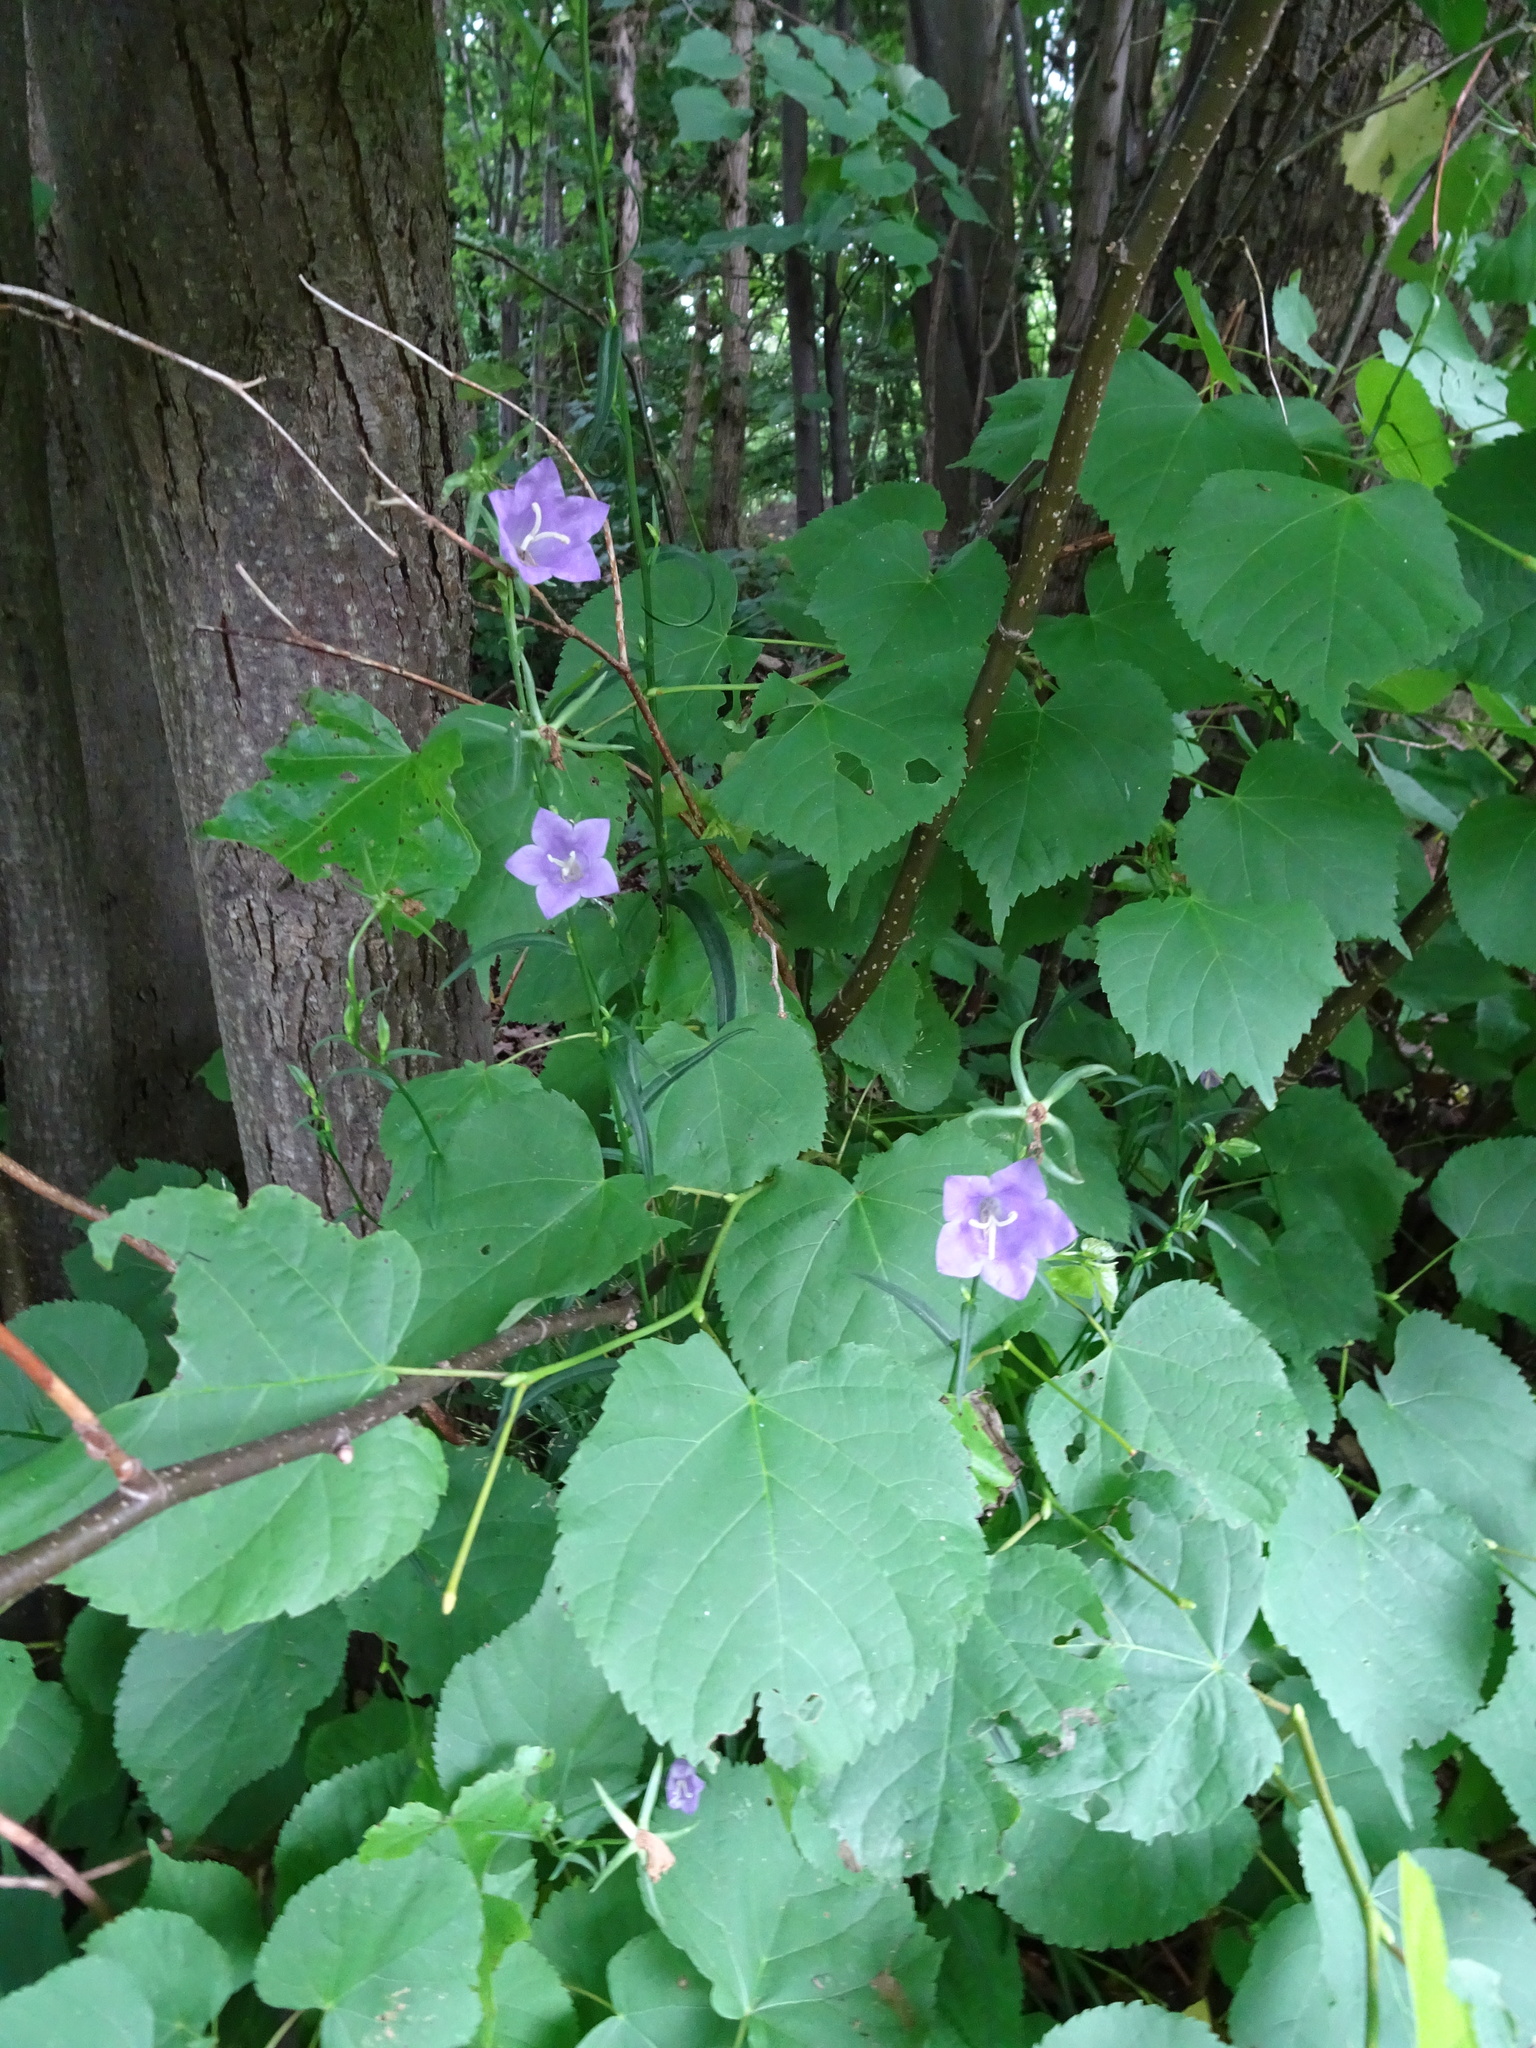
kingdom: Plantae
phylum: Tracheophyta
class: Magnoliopsida
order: Asterales
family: Campanulaceae
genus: Campanula
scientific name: Campanula persicifolia
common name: Peach-leaved bellflower
